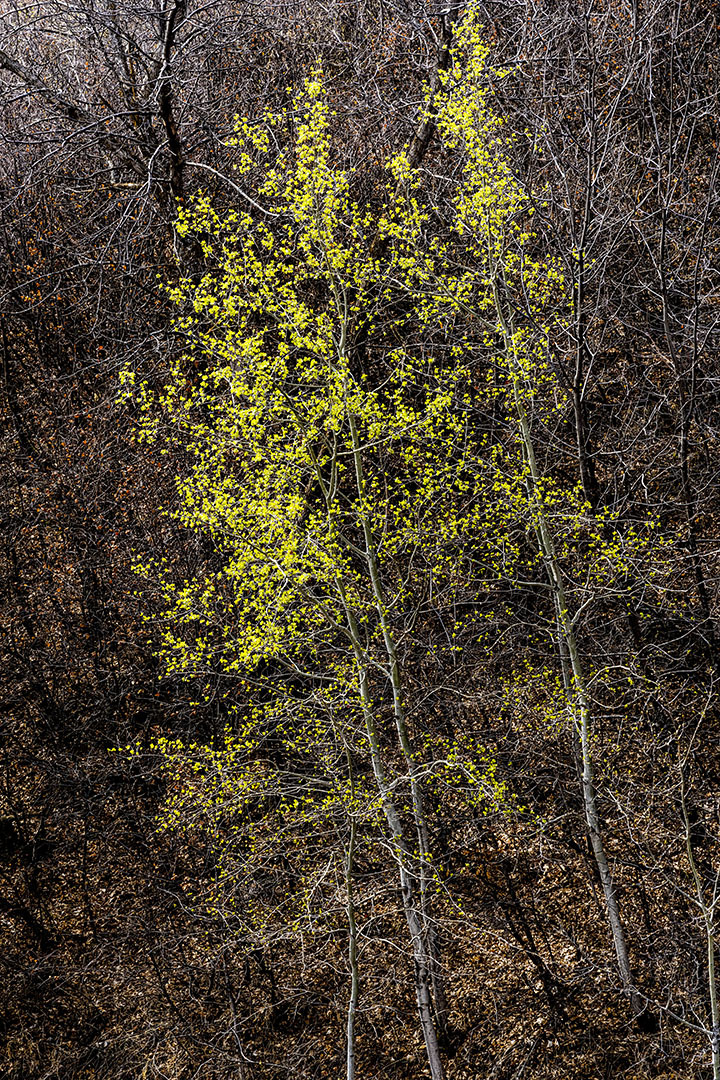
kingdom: Plantae
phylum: Tracheophyta
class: Magnoliopsida
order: Malpighiales
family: Salicaceae
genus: Populus
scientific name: Populus tremuloides
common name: Quaking aspen
